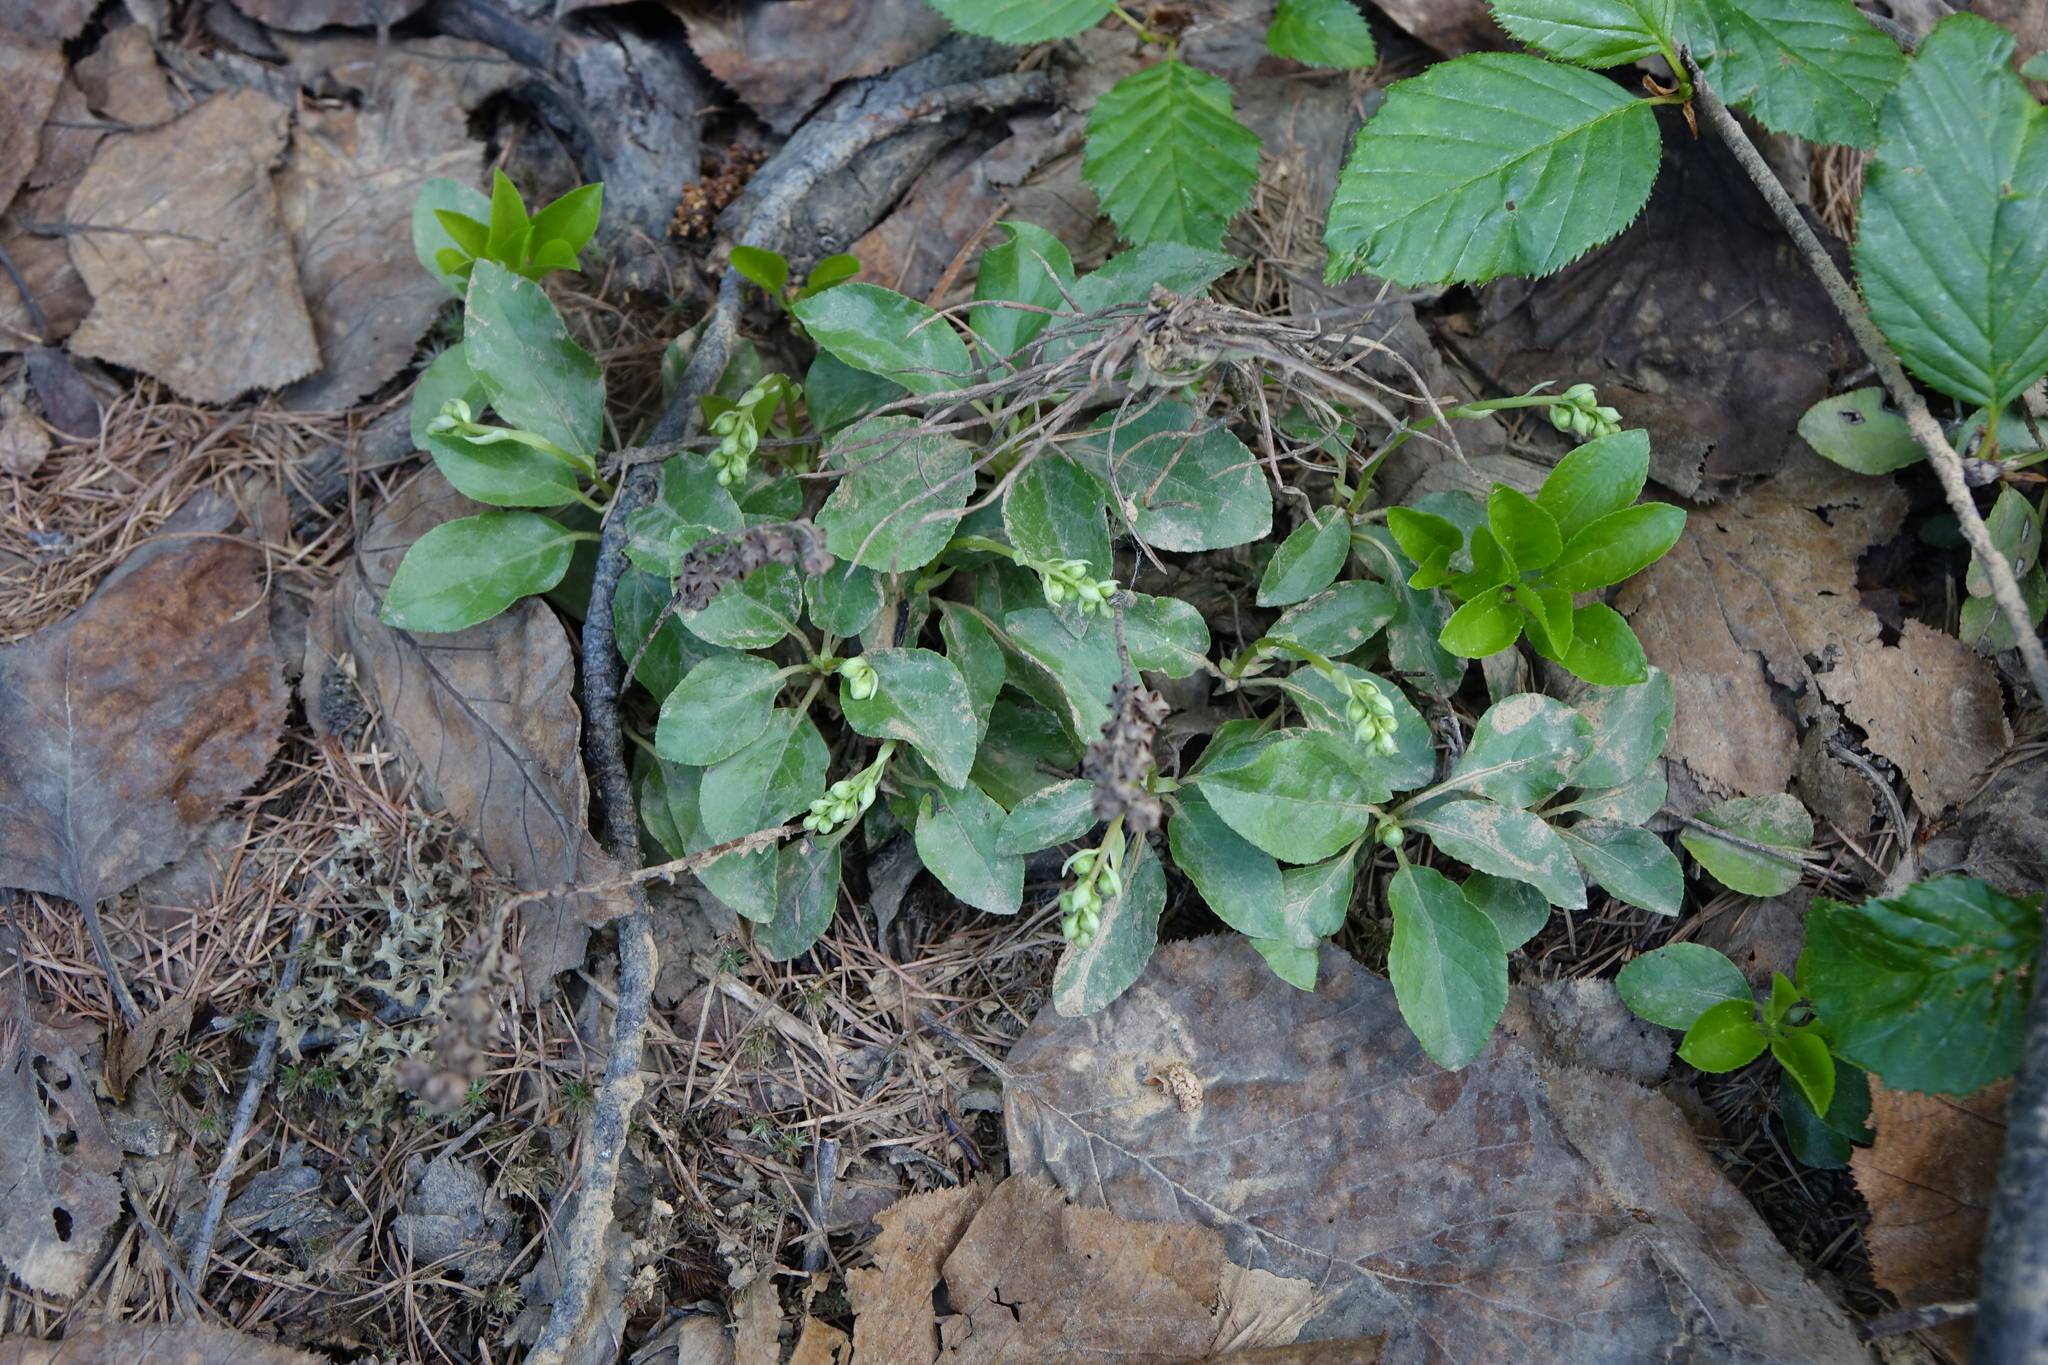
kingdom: Plantae
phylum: Tracheophyta
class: Magnoliopsida
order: Ericales
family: Ericaceae
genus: Orthilia
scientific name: Orthilia secunda
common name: One-sided orthilia
